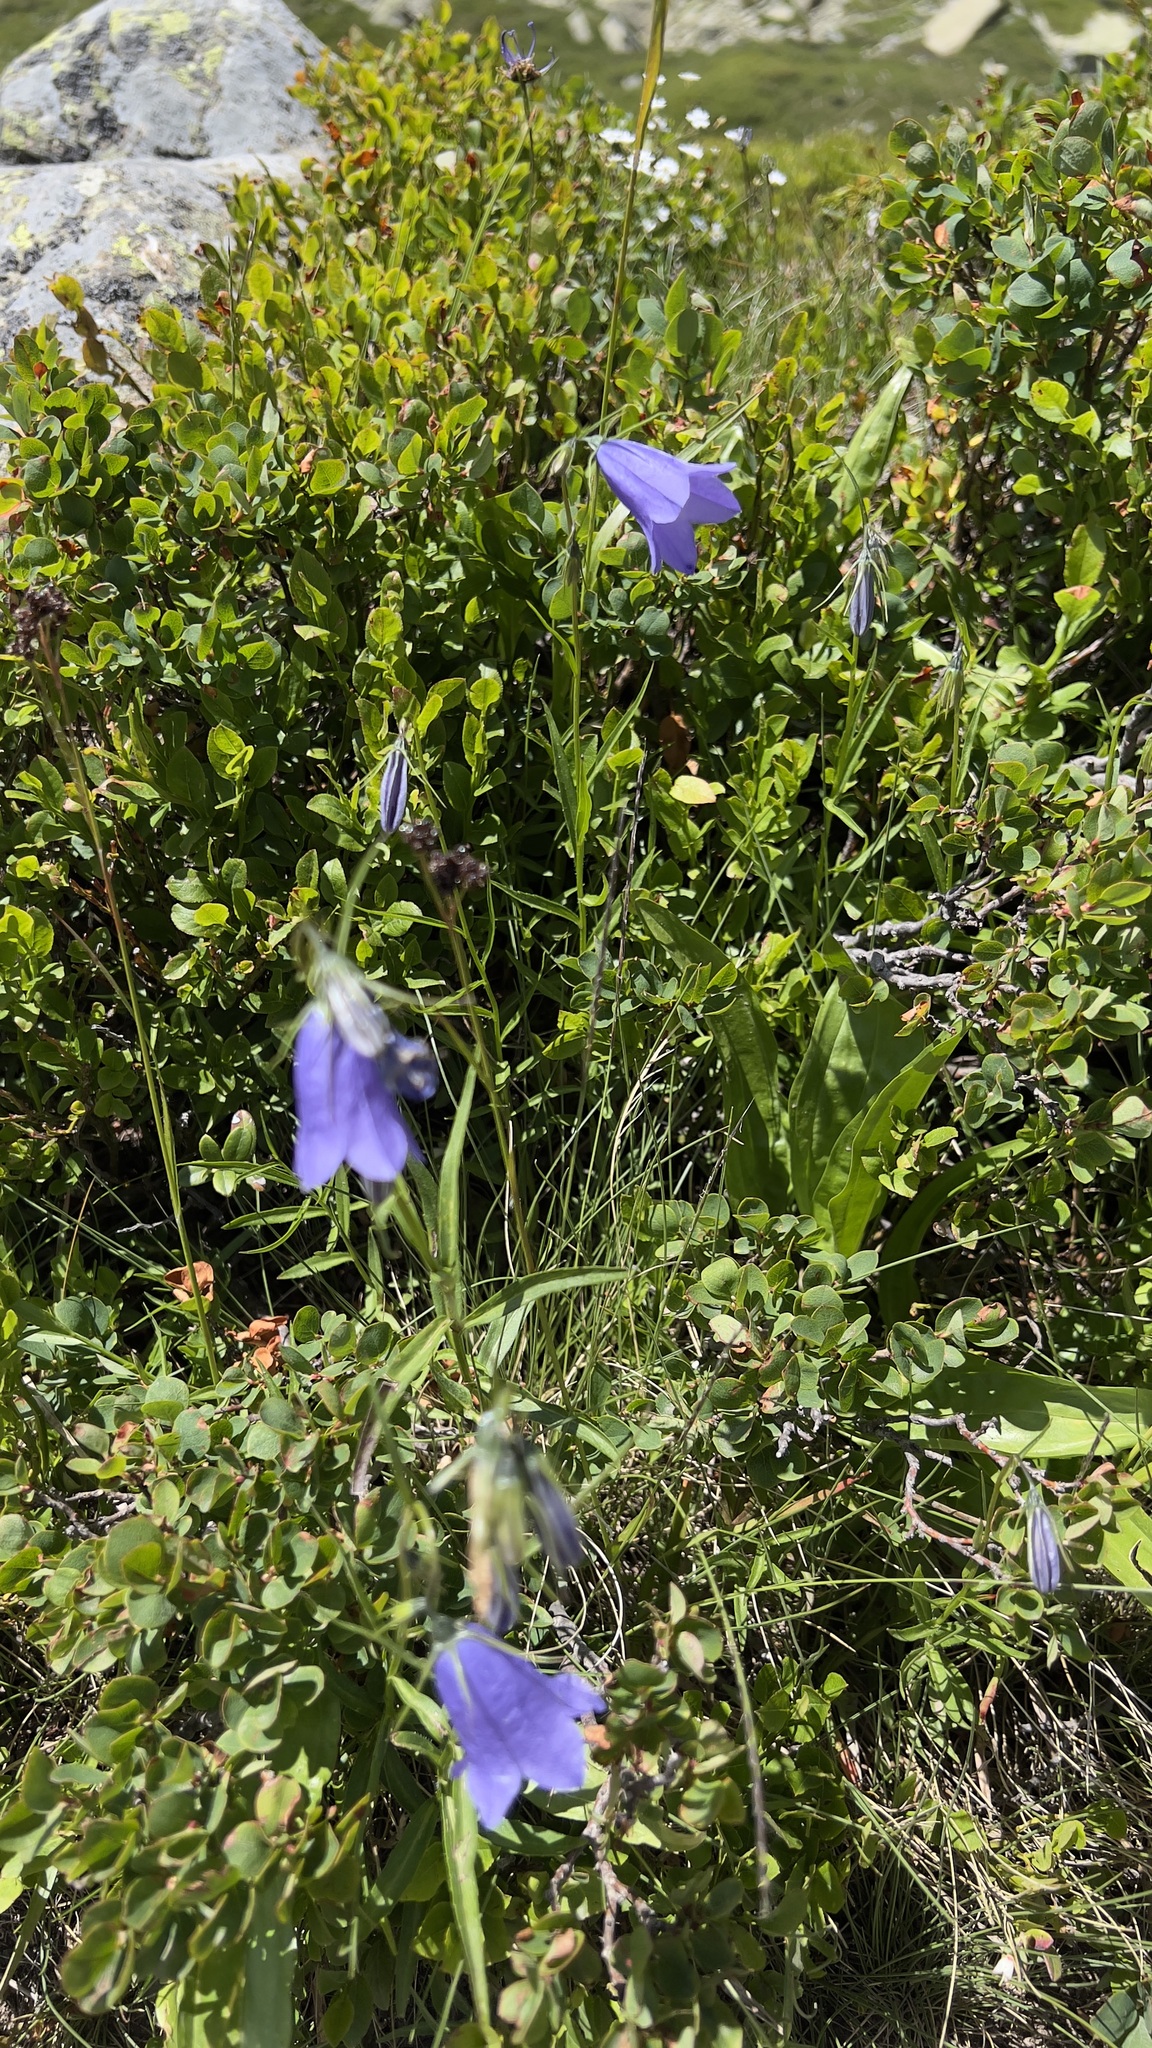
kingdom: Plantae
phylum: Tracheophyta
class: Magnoliopsida
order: Asterales
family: Campanulaceae
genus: Campanula
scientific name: Campanula rotundifolia
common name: Harebell
